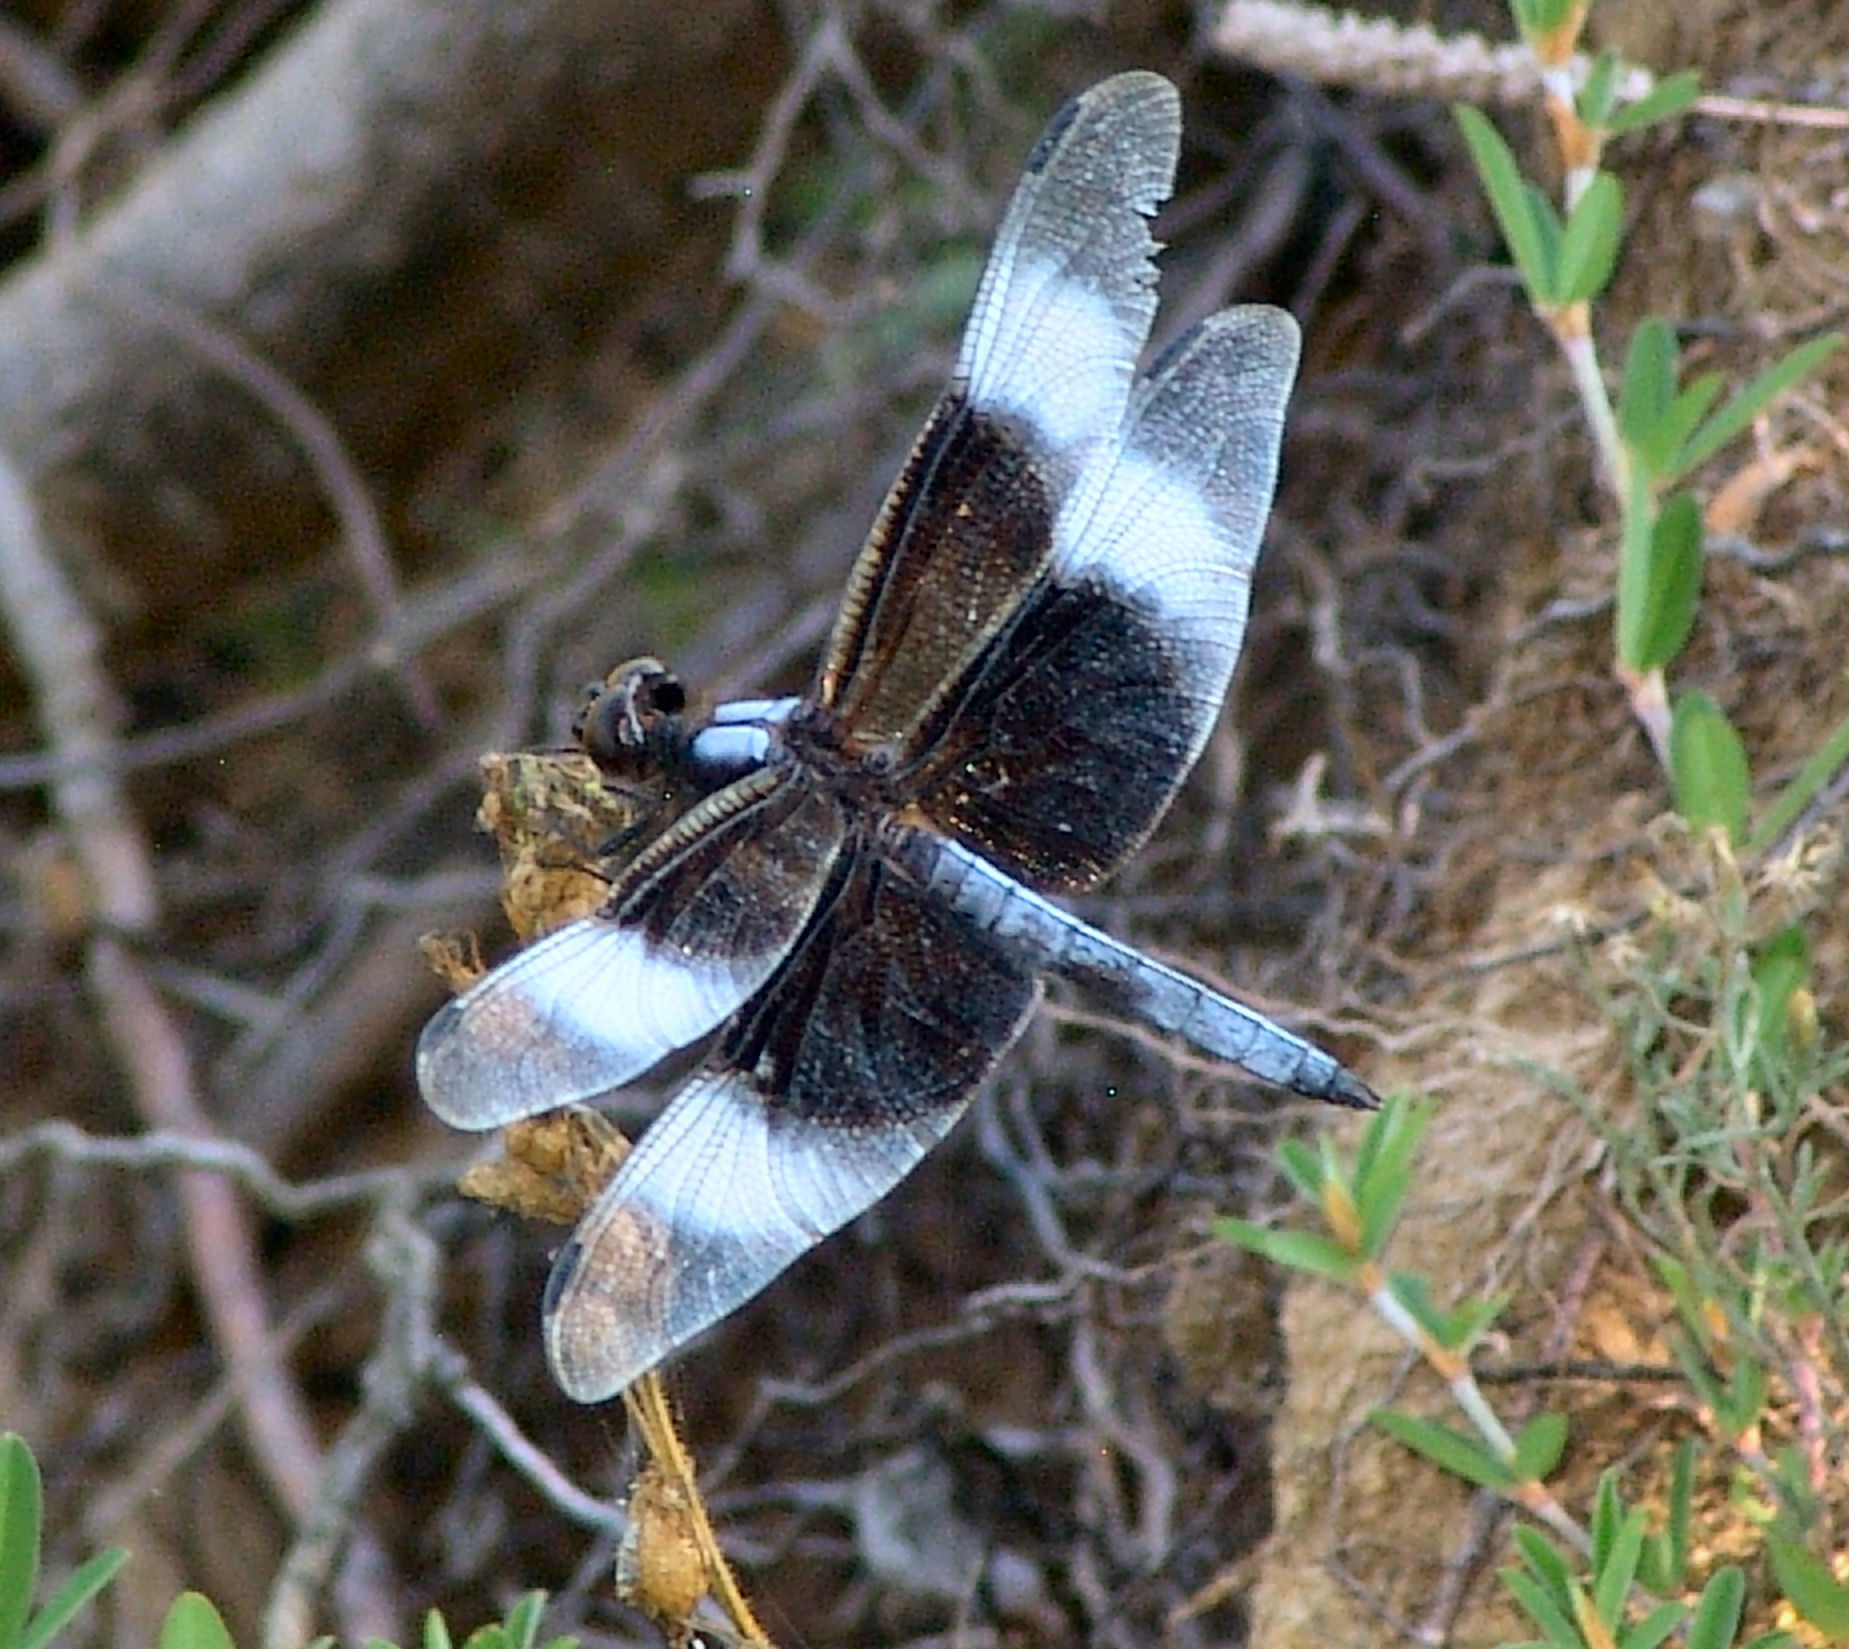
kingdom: Animalia
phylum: Arthropoda
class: Insecta
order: Odonata
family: Libellulidae
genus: Libellula
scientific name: Libellula luctuosa
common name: Widow skimmer
